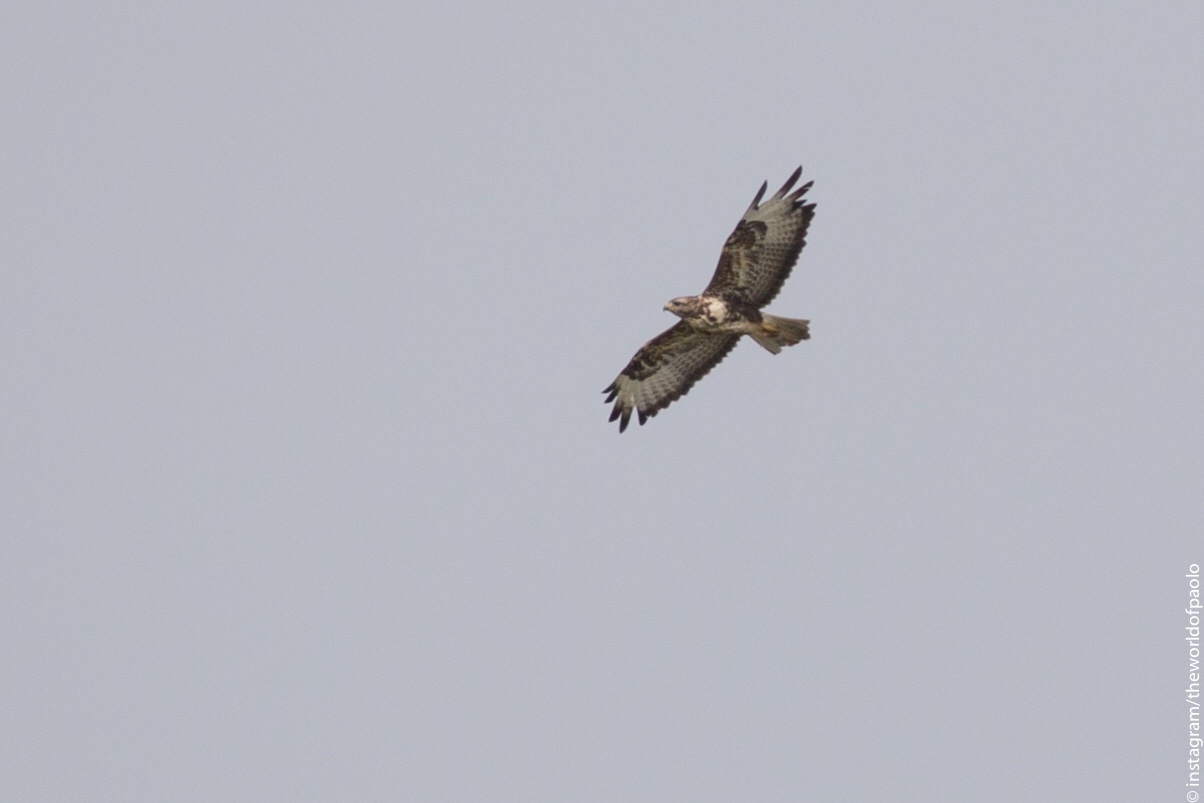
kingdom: Animalia
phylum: Chordata
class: Aves
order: Accipitriformes
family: Accipitridae
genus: Buteo
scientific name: Buteo buteo
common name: Common buzzard
